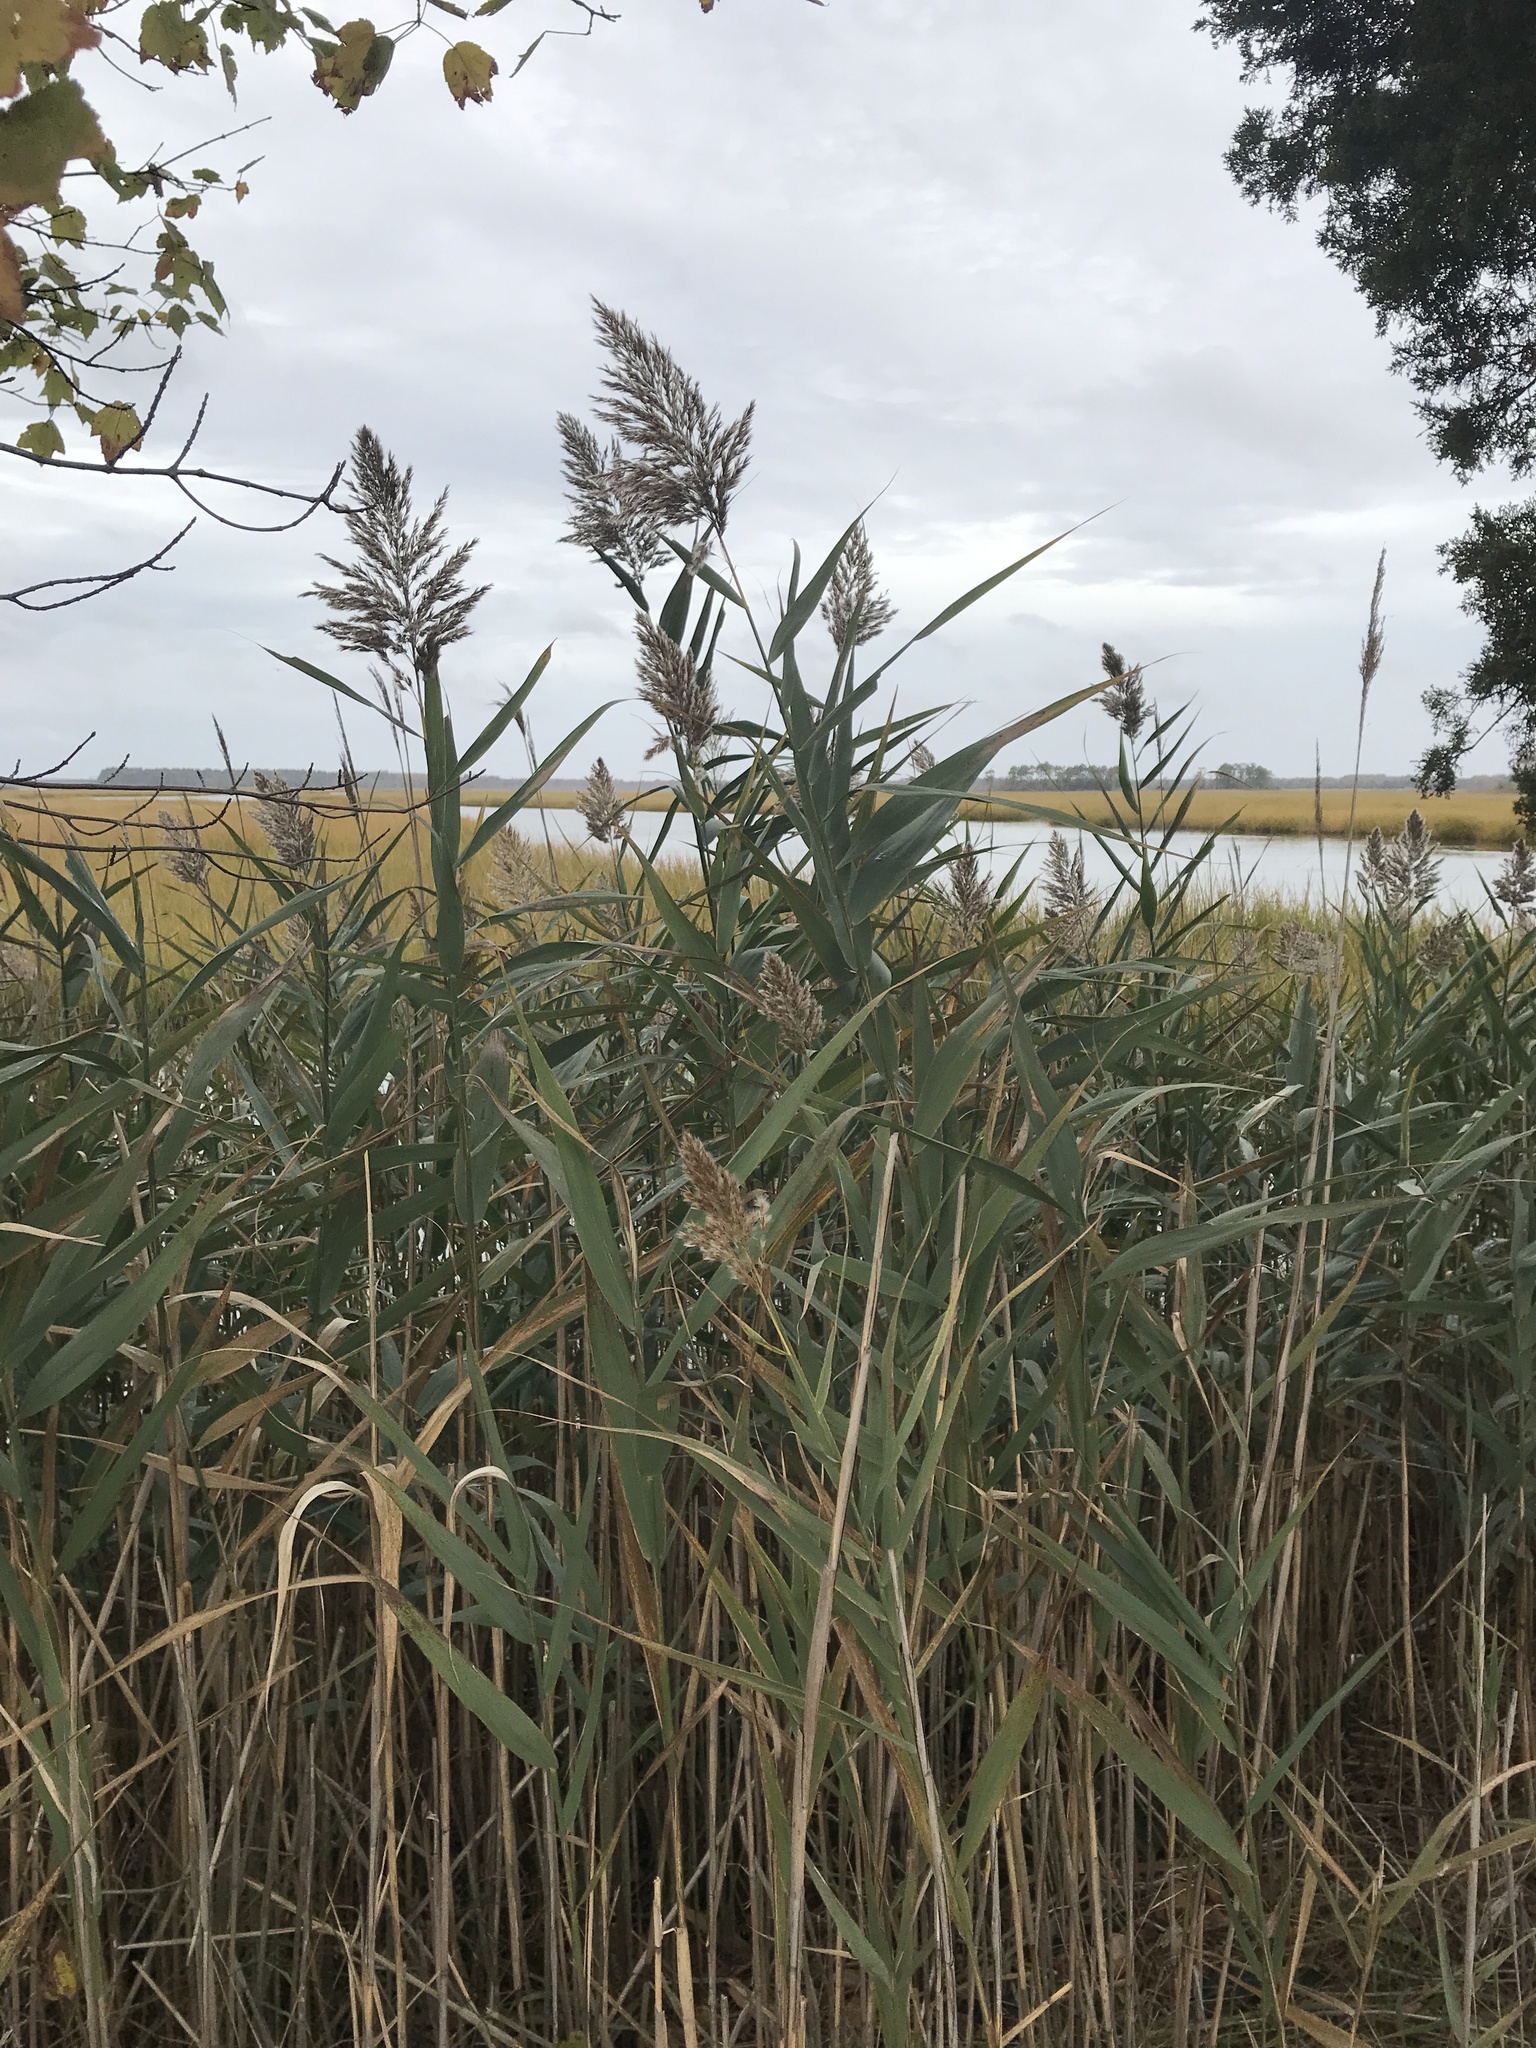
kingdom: Plantae
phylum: Tracheophyta
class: Liliopsida
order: Poales
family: Poaceae
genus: Phragmites
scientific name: Phragmites australis
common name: Common reed
